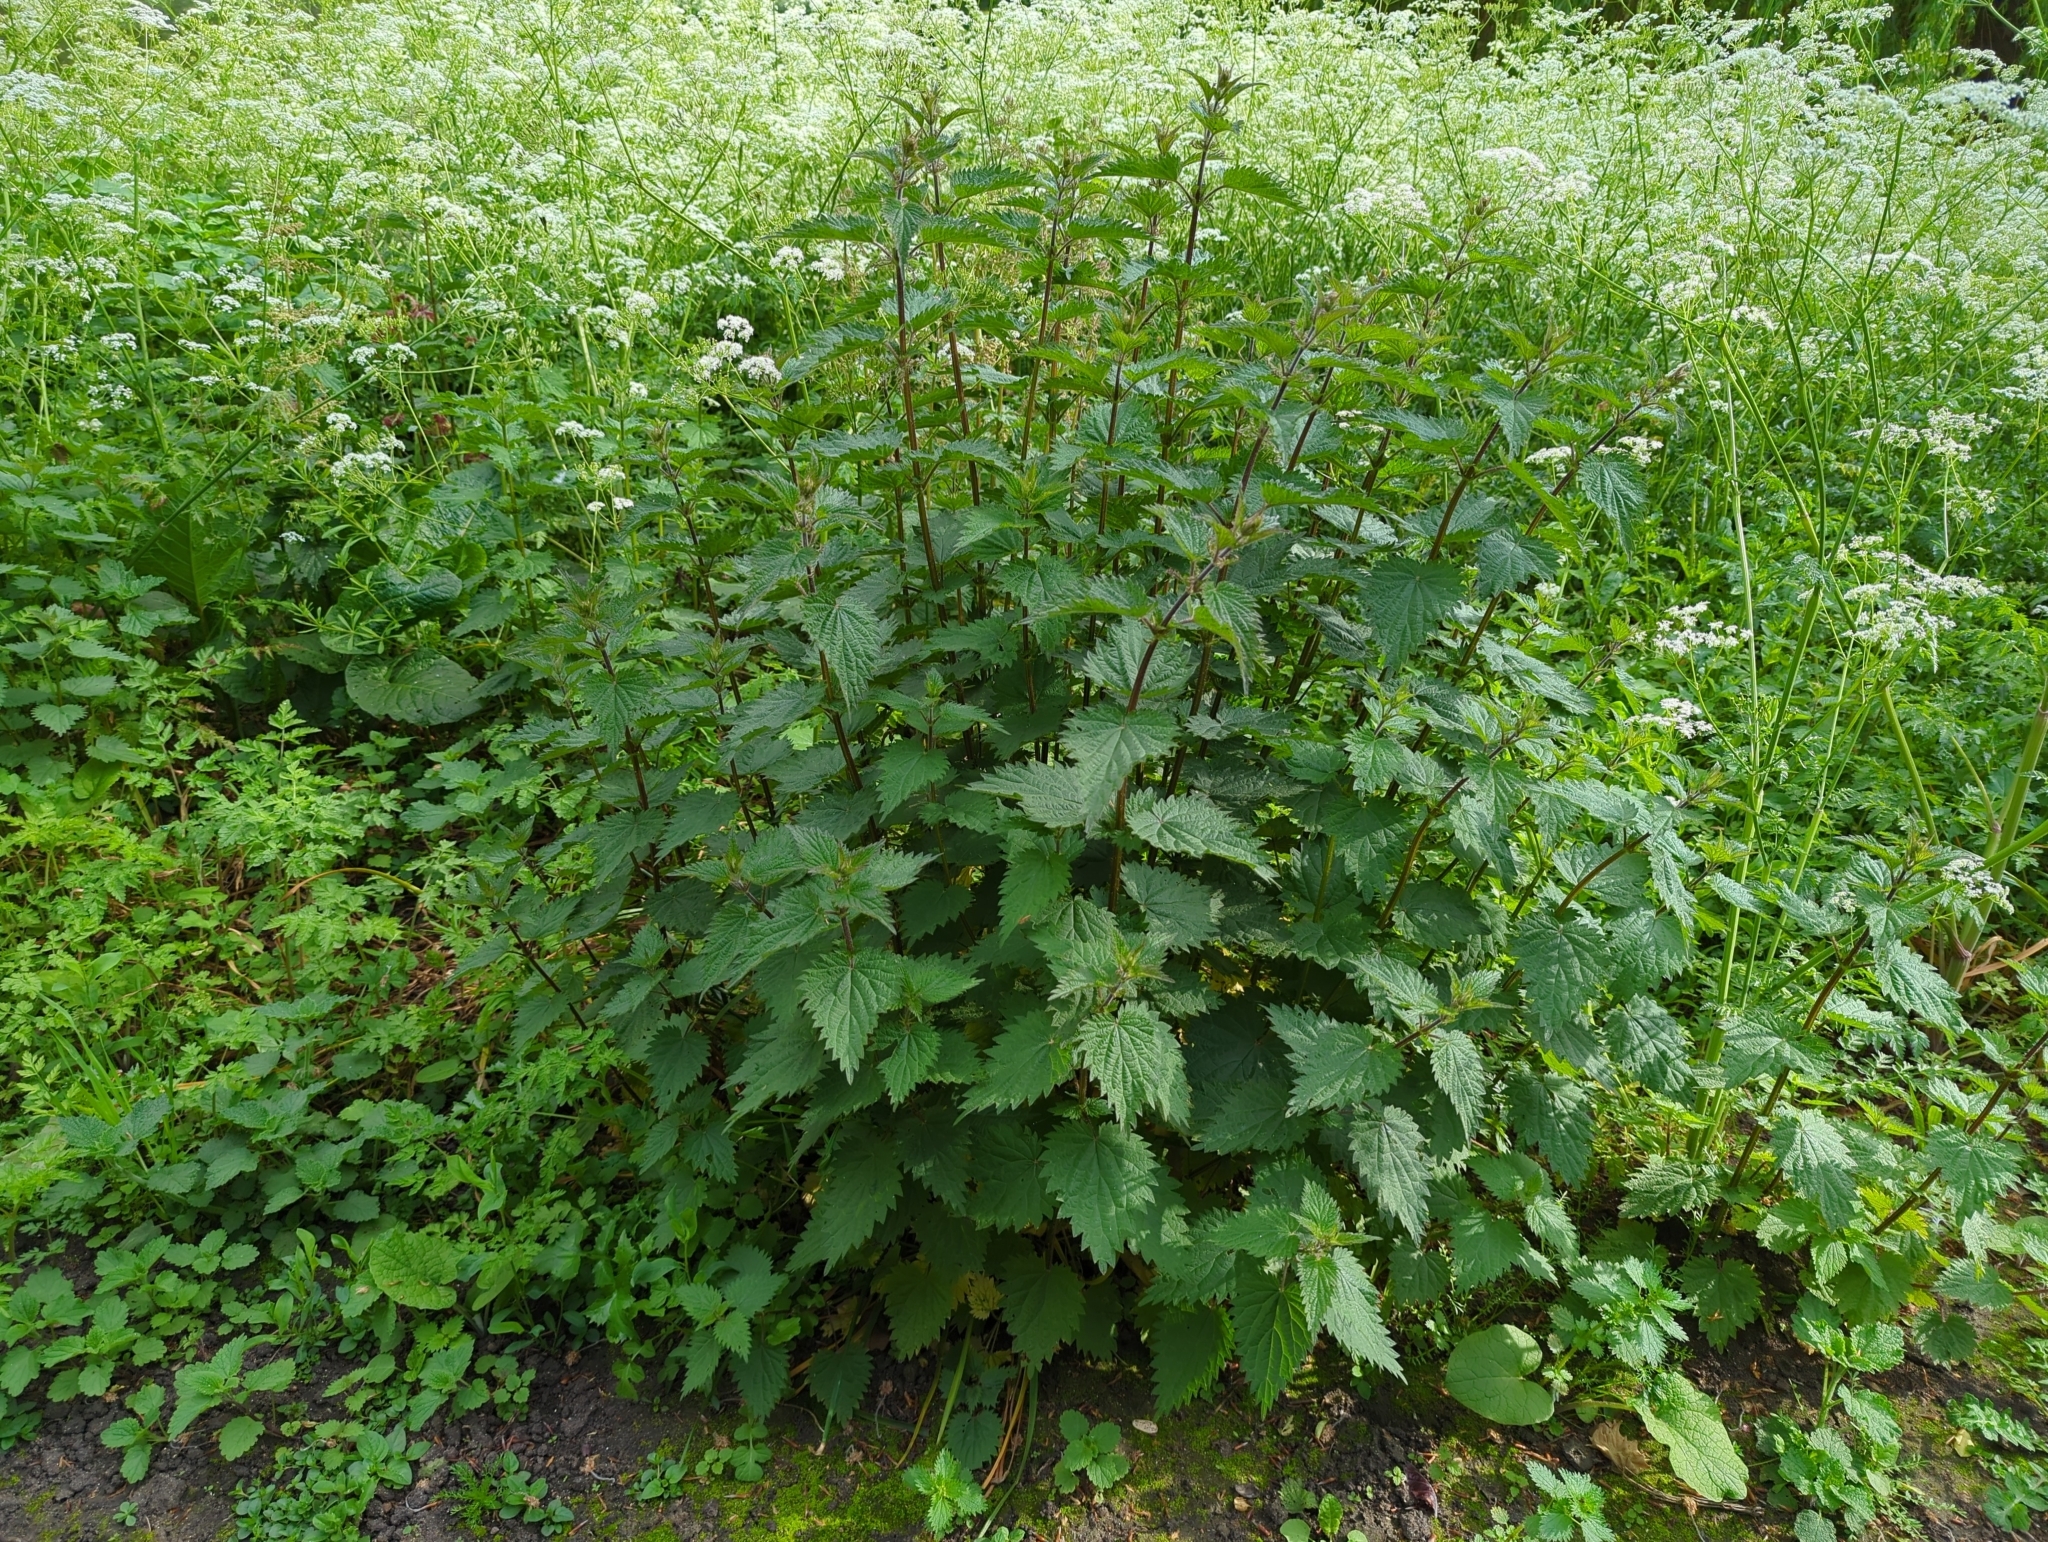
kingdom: Plantae
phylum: Tracheophyta
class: Magnoliopsida
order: Rosales
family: Urticaceae
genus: Urtica
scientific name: Urtica dioica
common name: Common nettle
